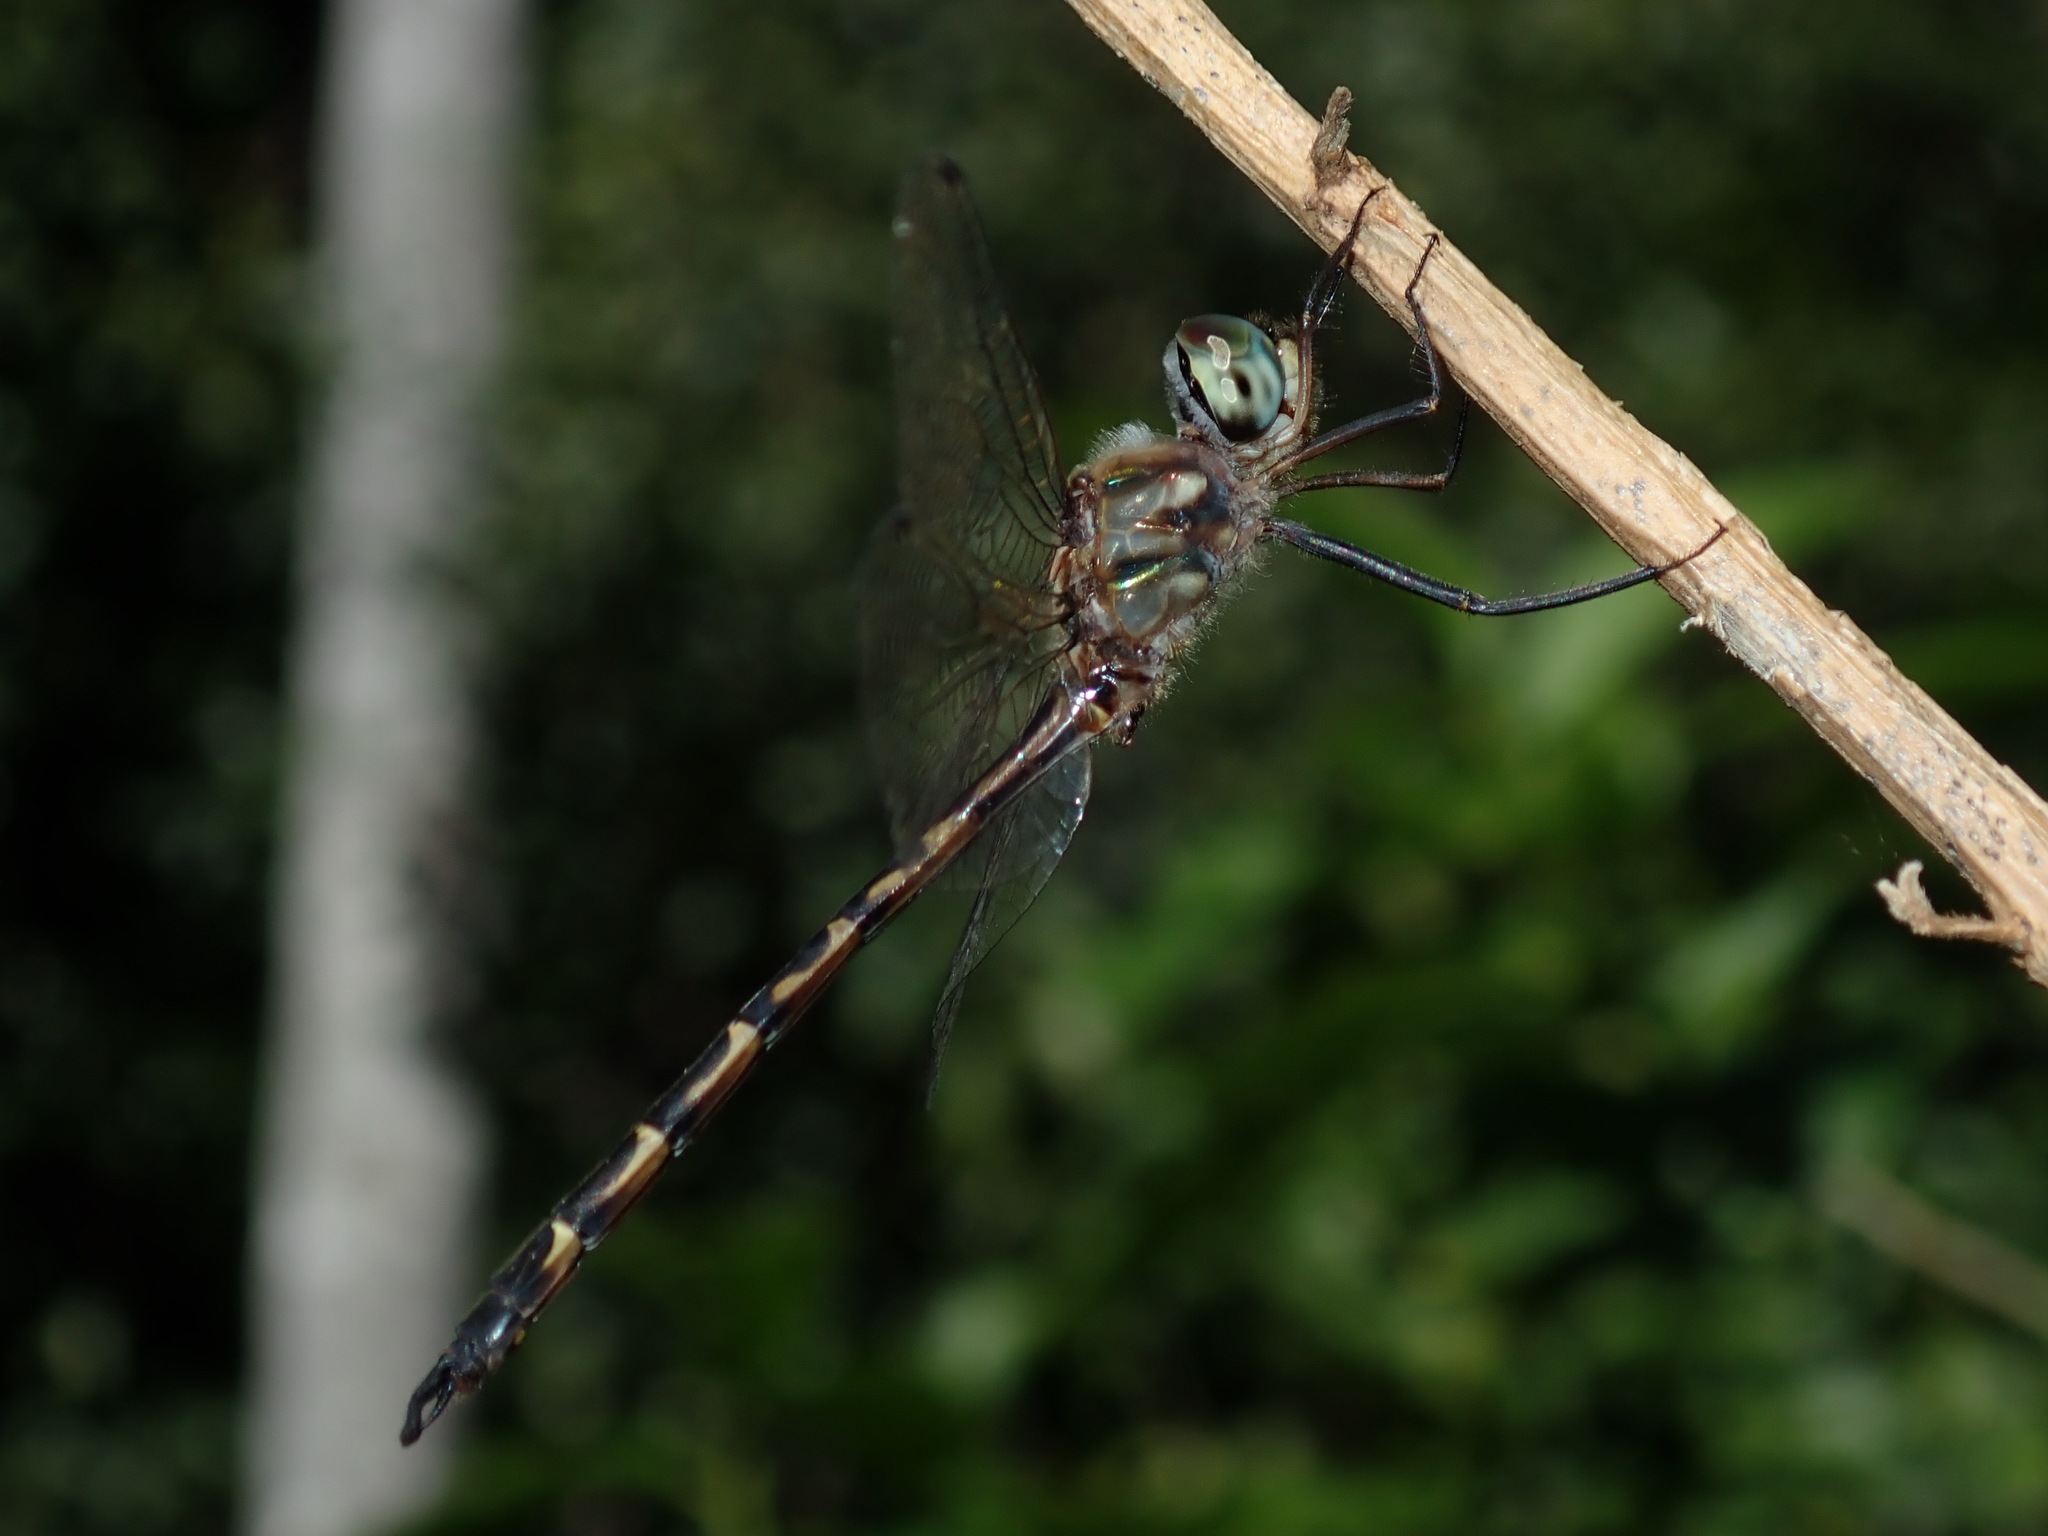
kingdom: Animalia
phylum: Arthropoda
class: Insecta
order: Odonata
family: Corduliidae
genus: Hemicordulia
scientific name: Hemicordulia australiae
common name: Sentry dragonfly
